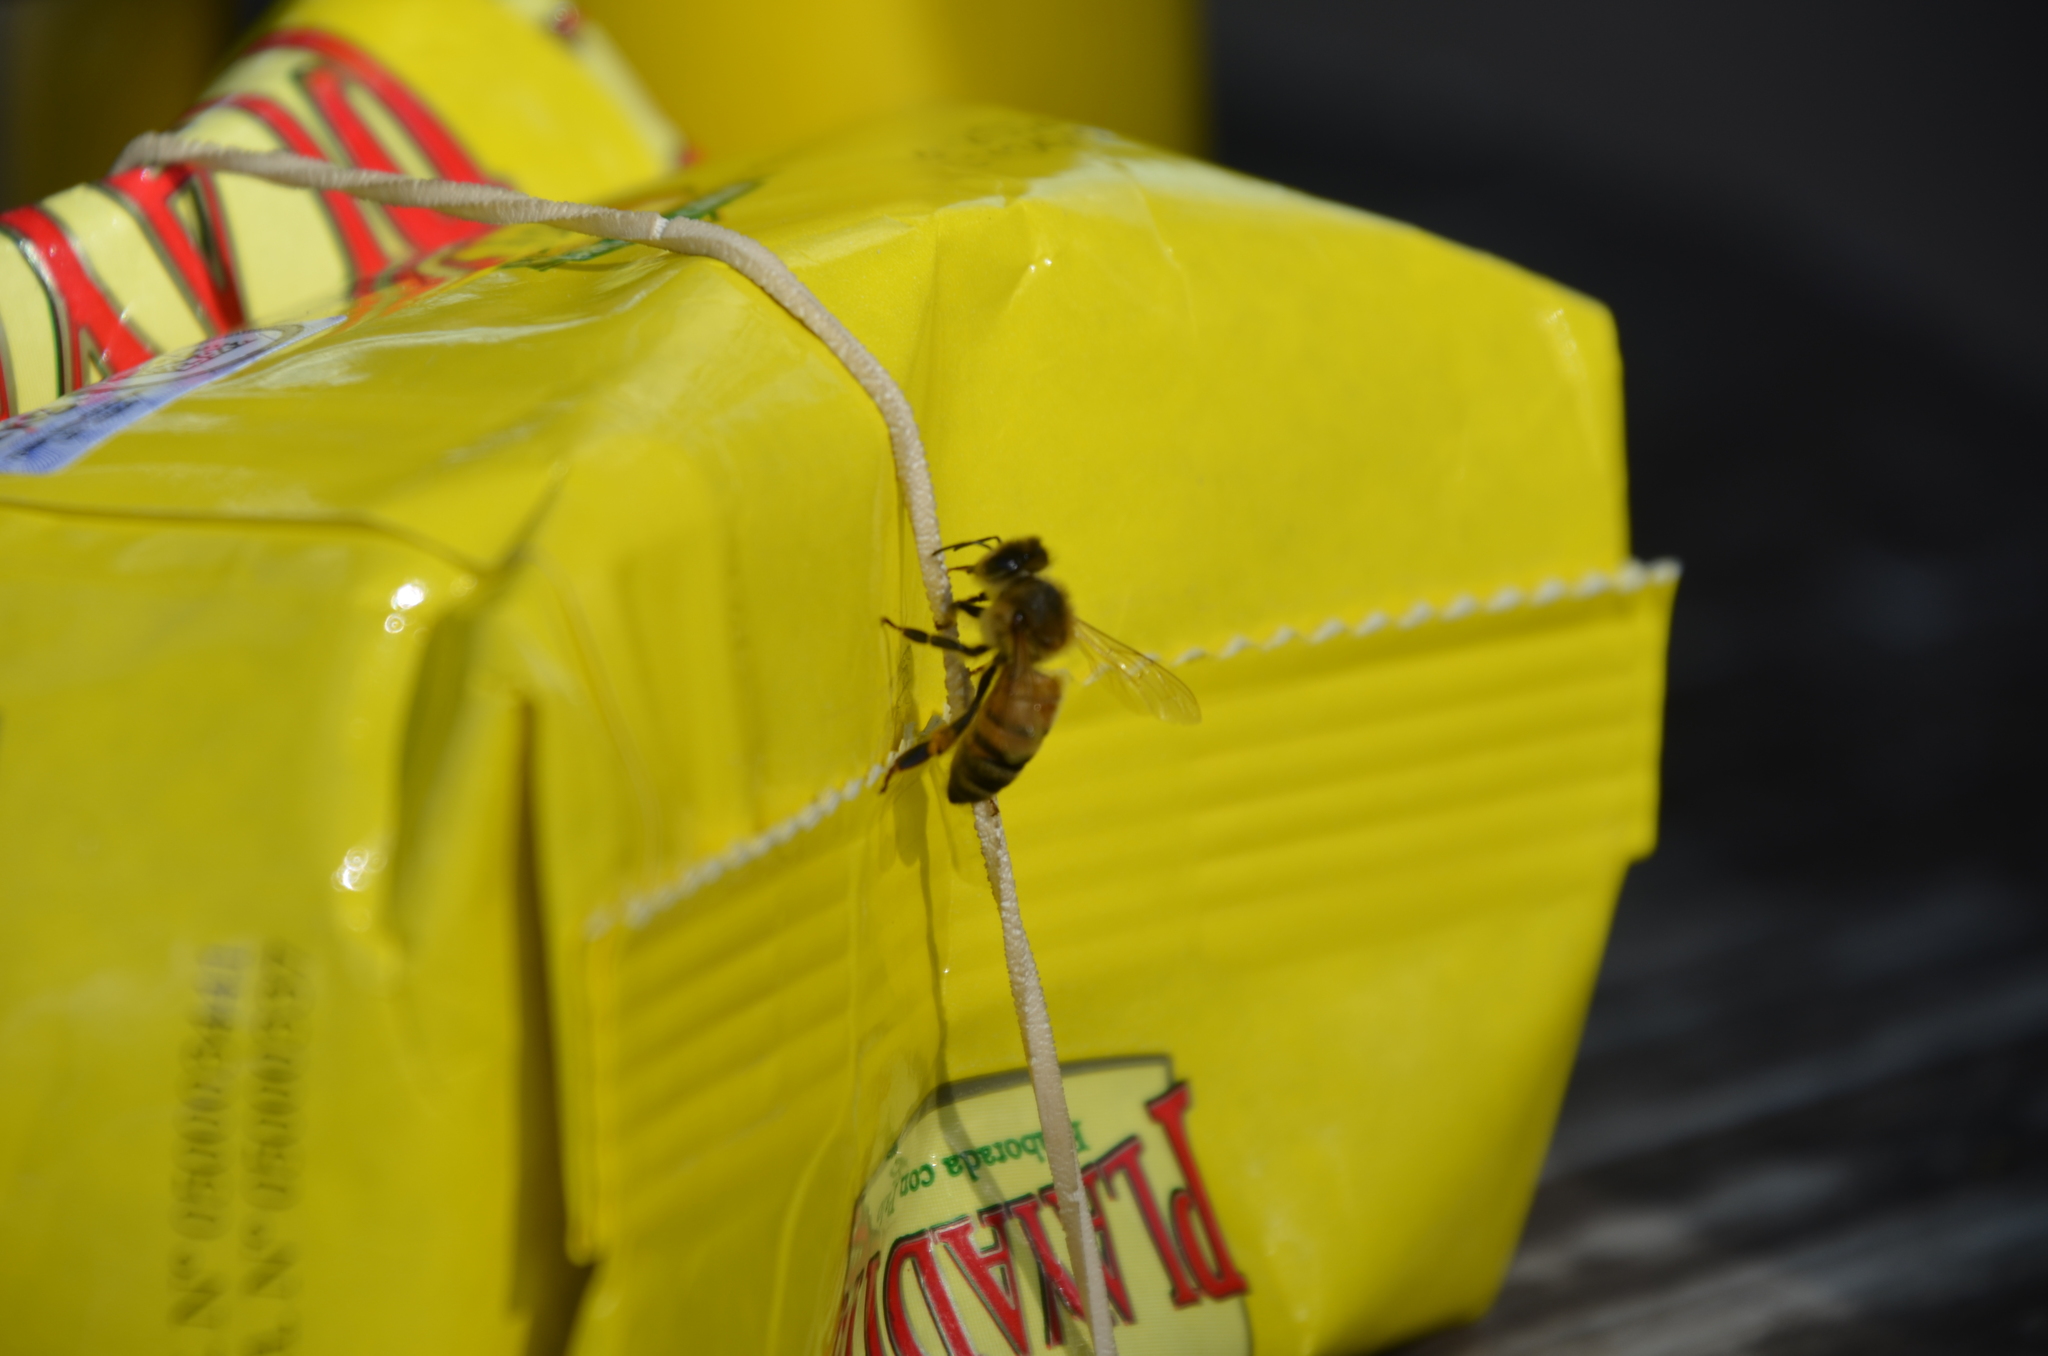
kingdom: Animalia
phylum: Arthropoda
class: Insecta
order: Hymenoptera
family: Apidae
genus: Apis
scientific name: Apis mellifera
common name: Honey bee
